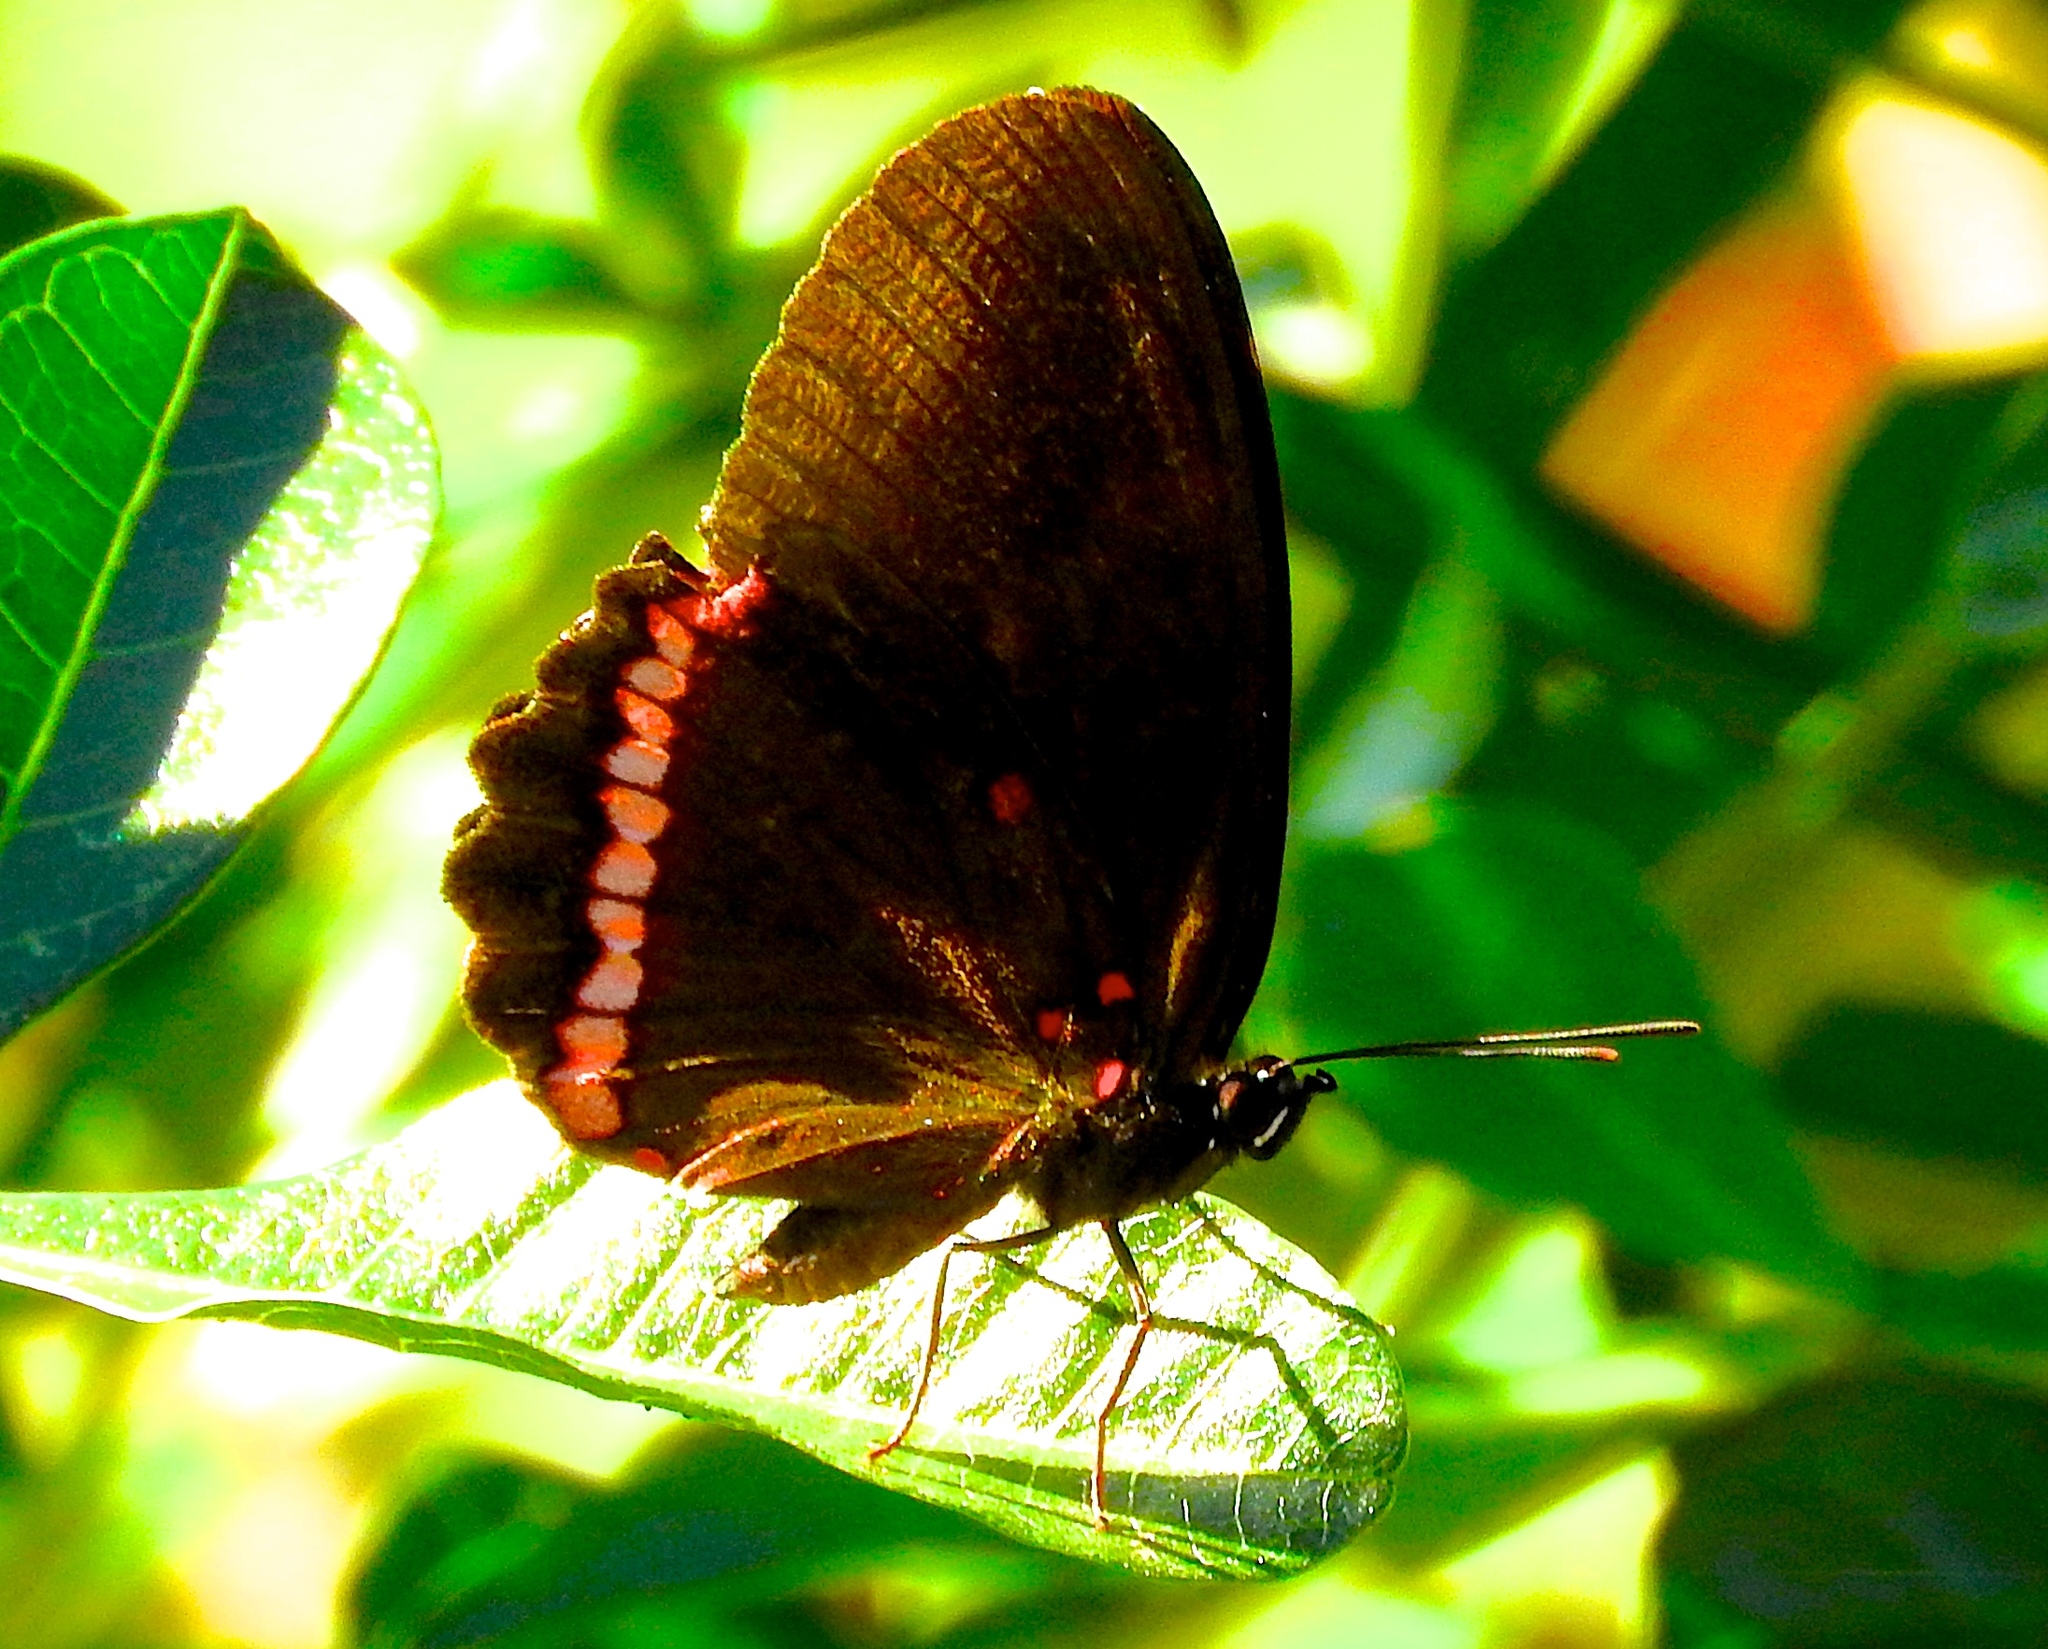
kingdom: Animalia
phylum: Arthropoda
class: Insecta
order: Lepidoptera
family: Nymphalidae
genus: Biblis
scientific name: Biblis aganisa
